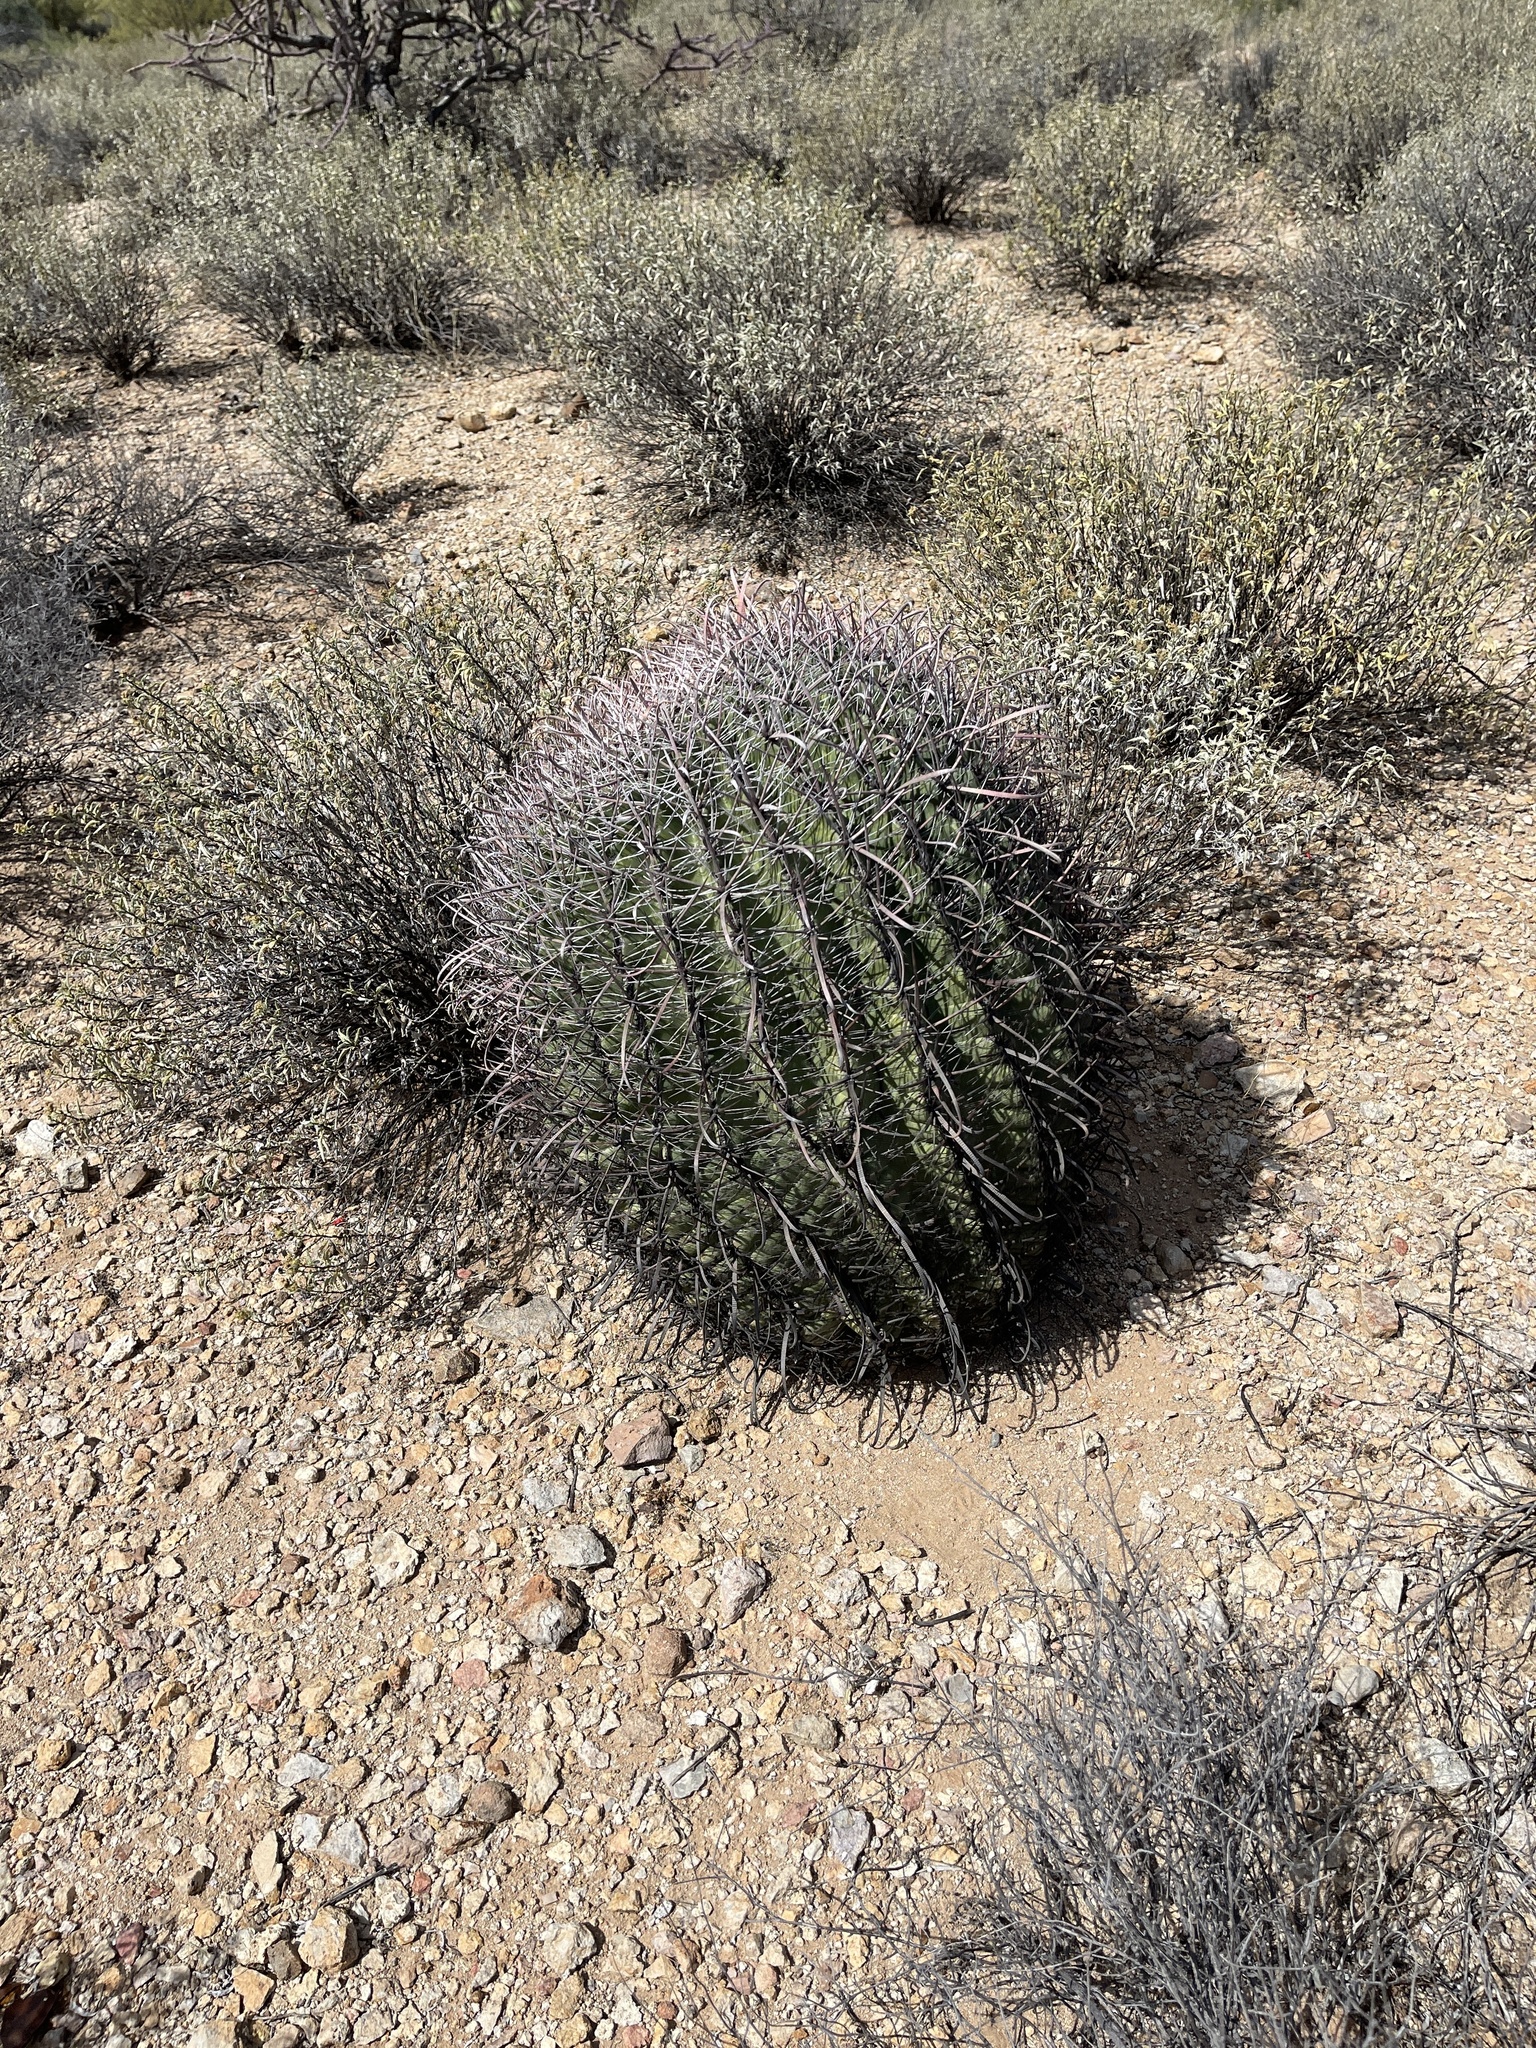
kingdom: Plantae
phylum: Tracheophyta
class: Magnoliopsida
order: Caryophyllales
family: Cactaceae
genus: Ferocactus
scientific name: Ferocactus wislizeni
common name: Candy barrel cactus
